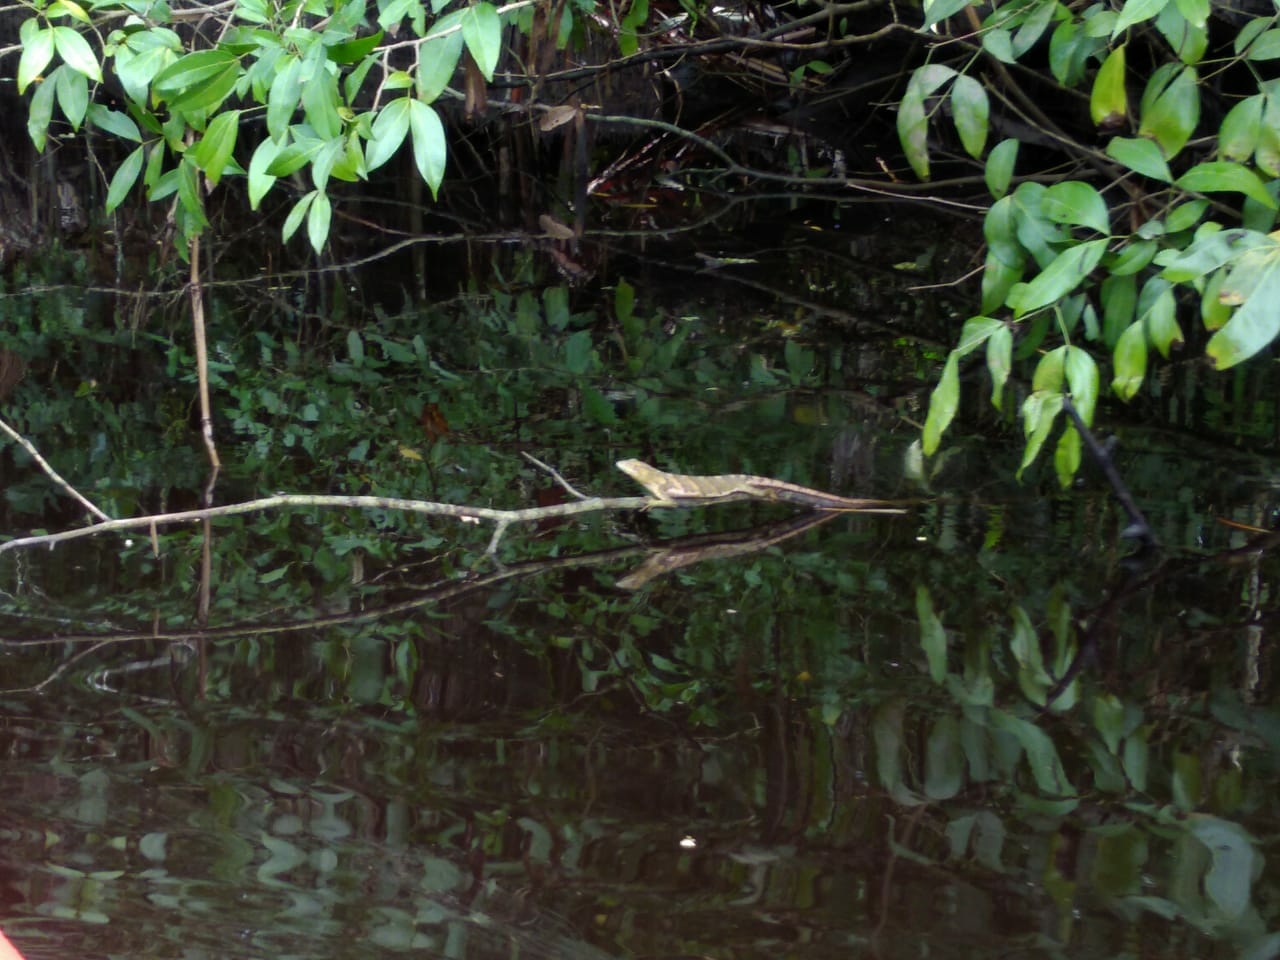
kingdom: Animalia
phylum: Chordata
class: Squamata
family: Polychrotidae
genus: Polychrus
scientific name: Polychrus marmoratus
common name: Many-colored bush anole
